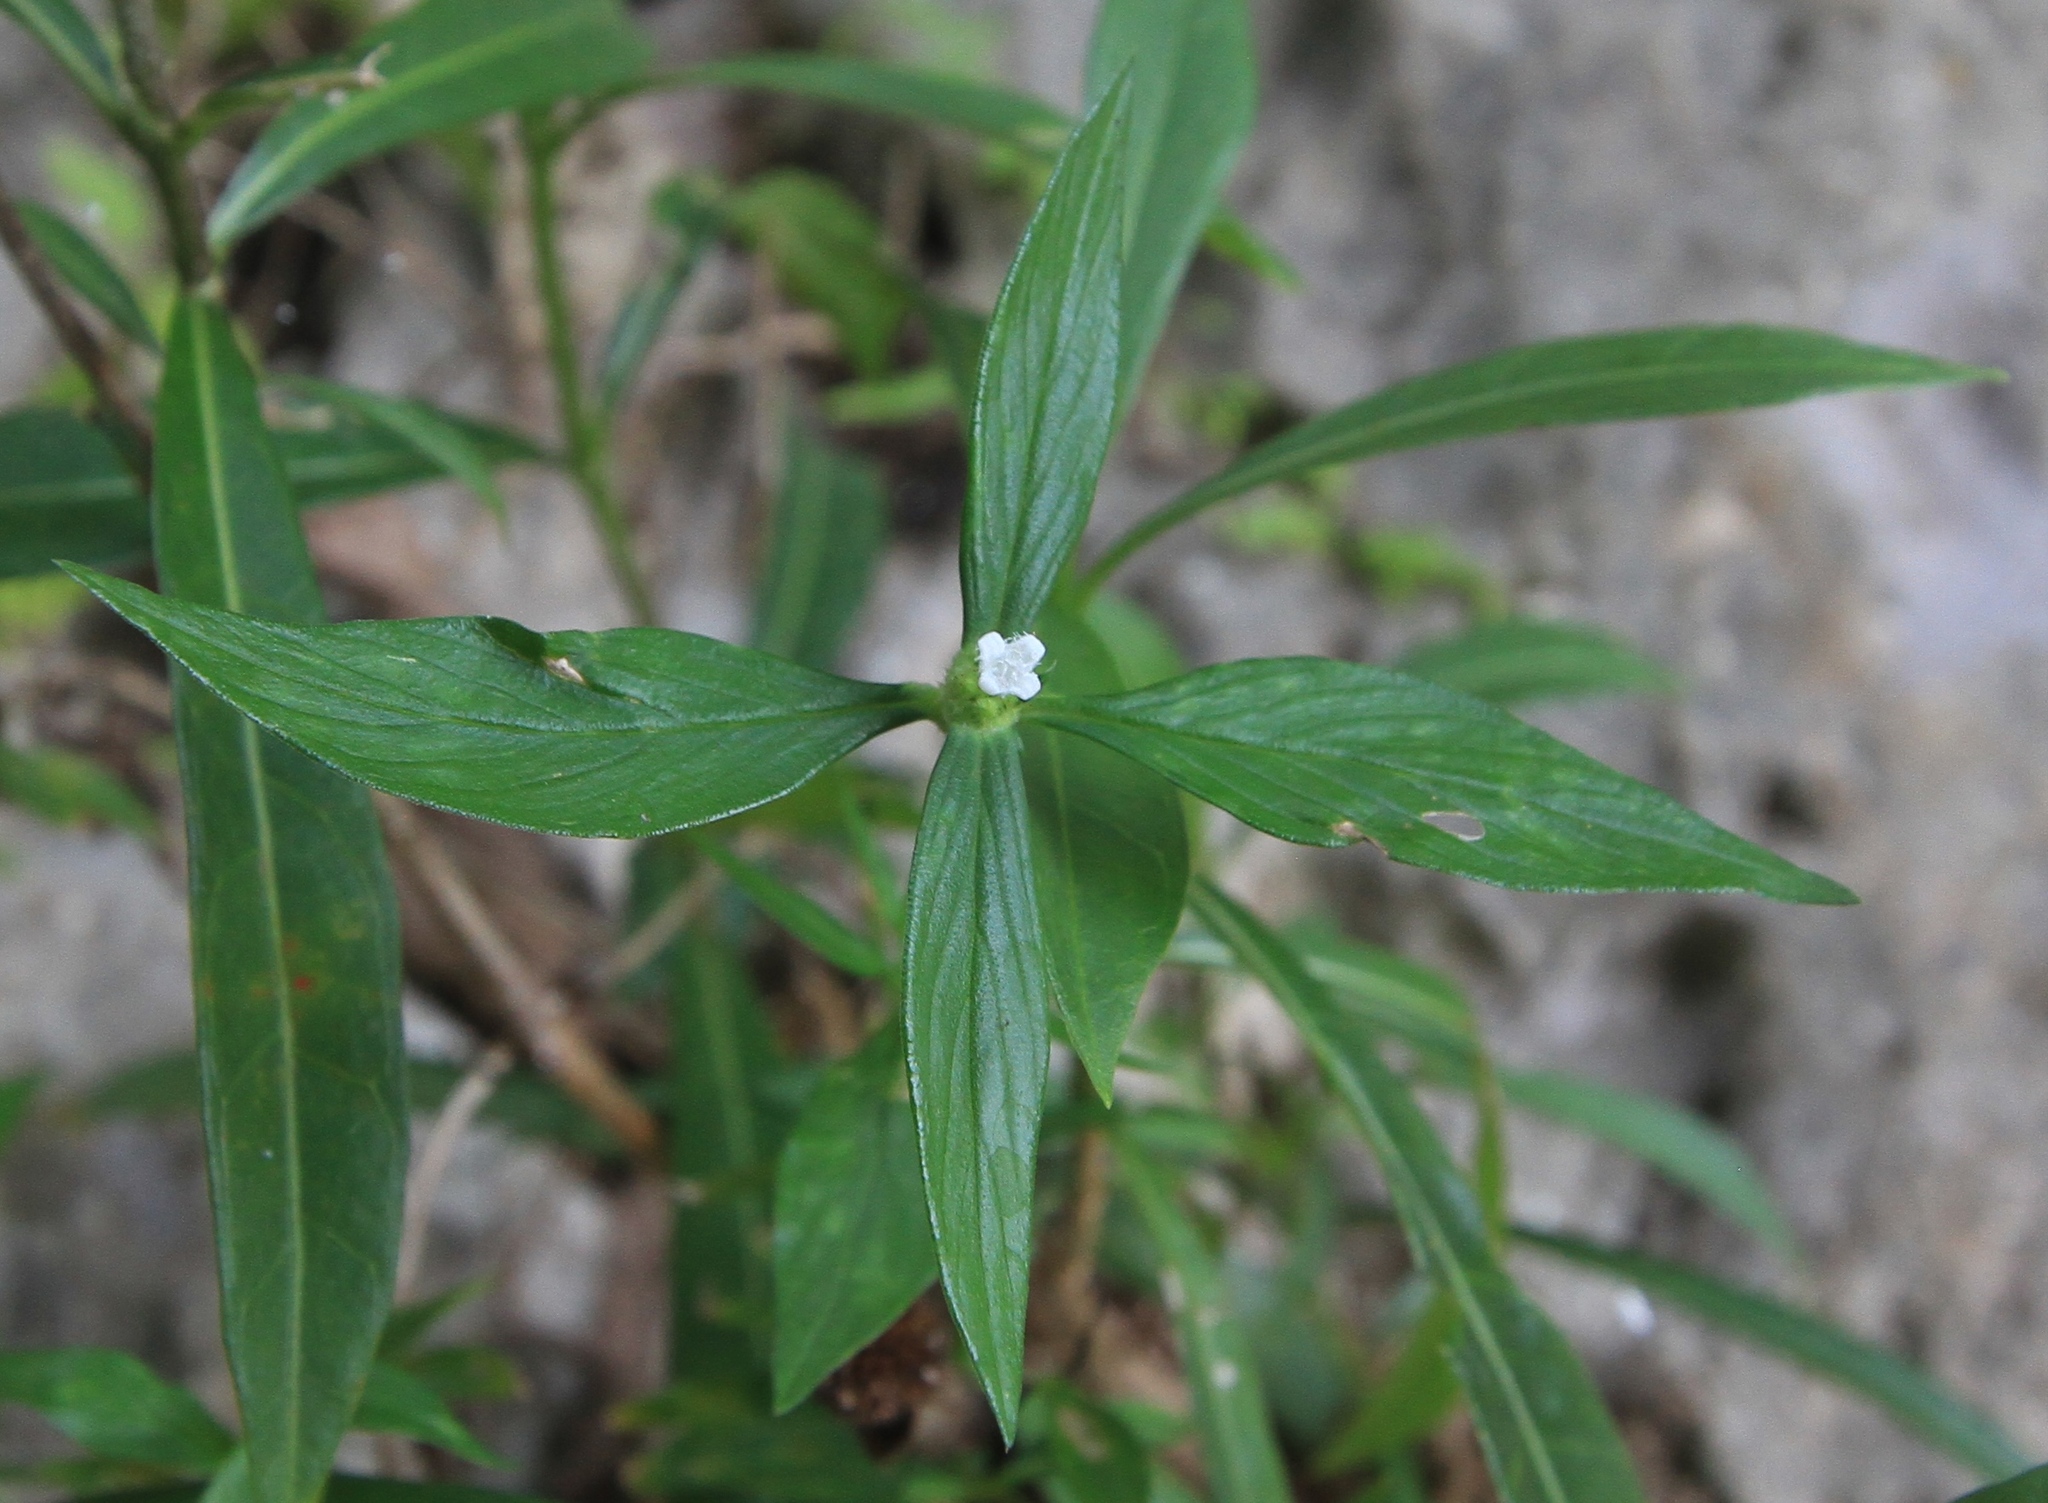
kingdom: Plantae
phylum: Tracheophyta
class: Magnoliopsida
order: Gentianales
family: Rubiaceae
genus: Spermacoce
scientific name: Spermacoce remota
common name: Woodland false buttonweed
